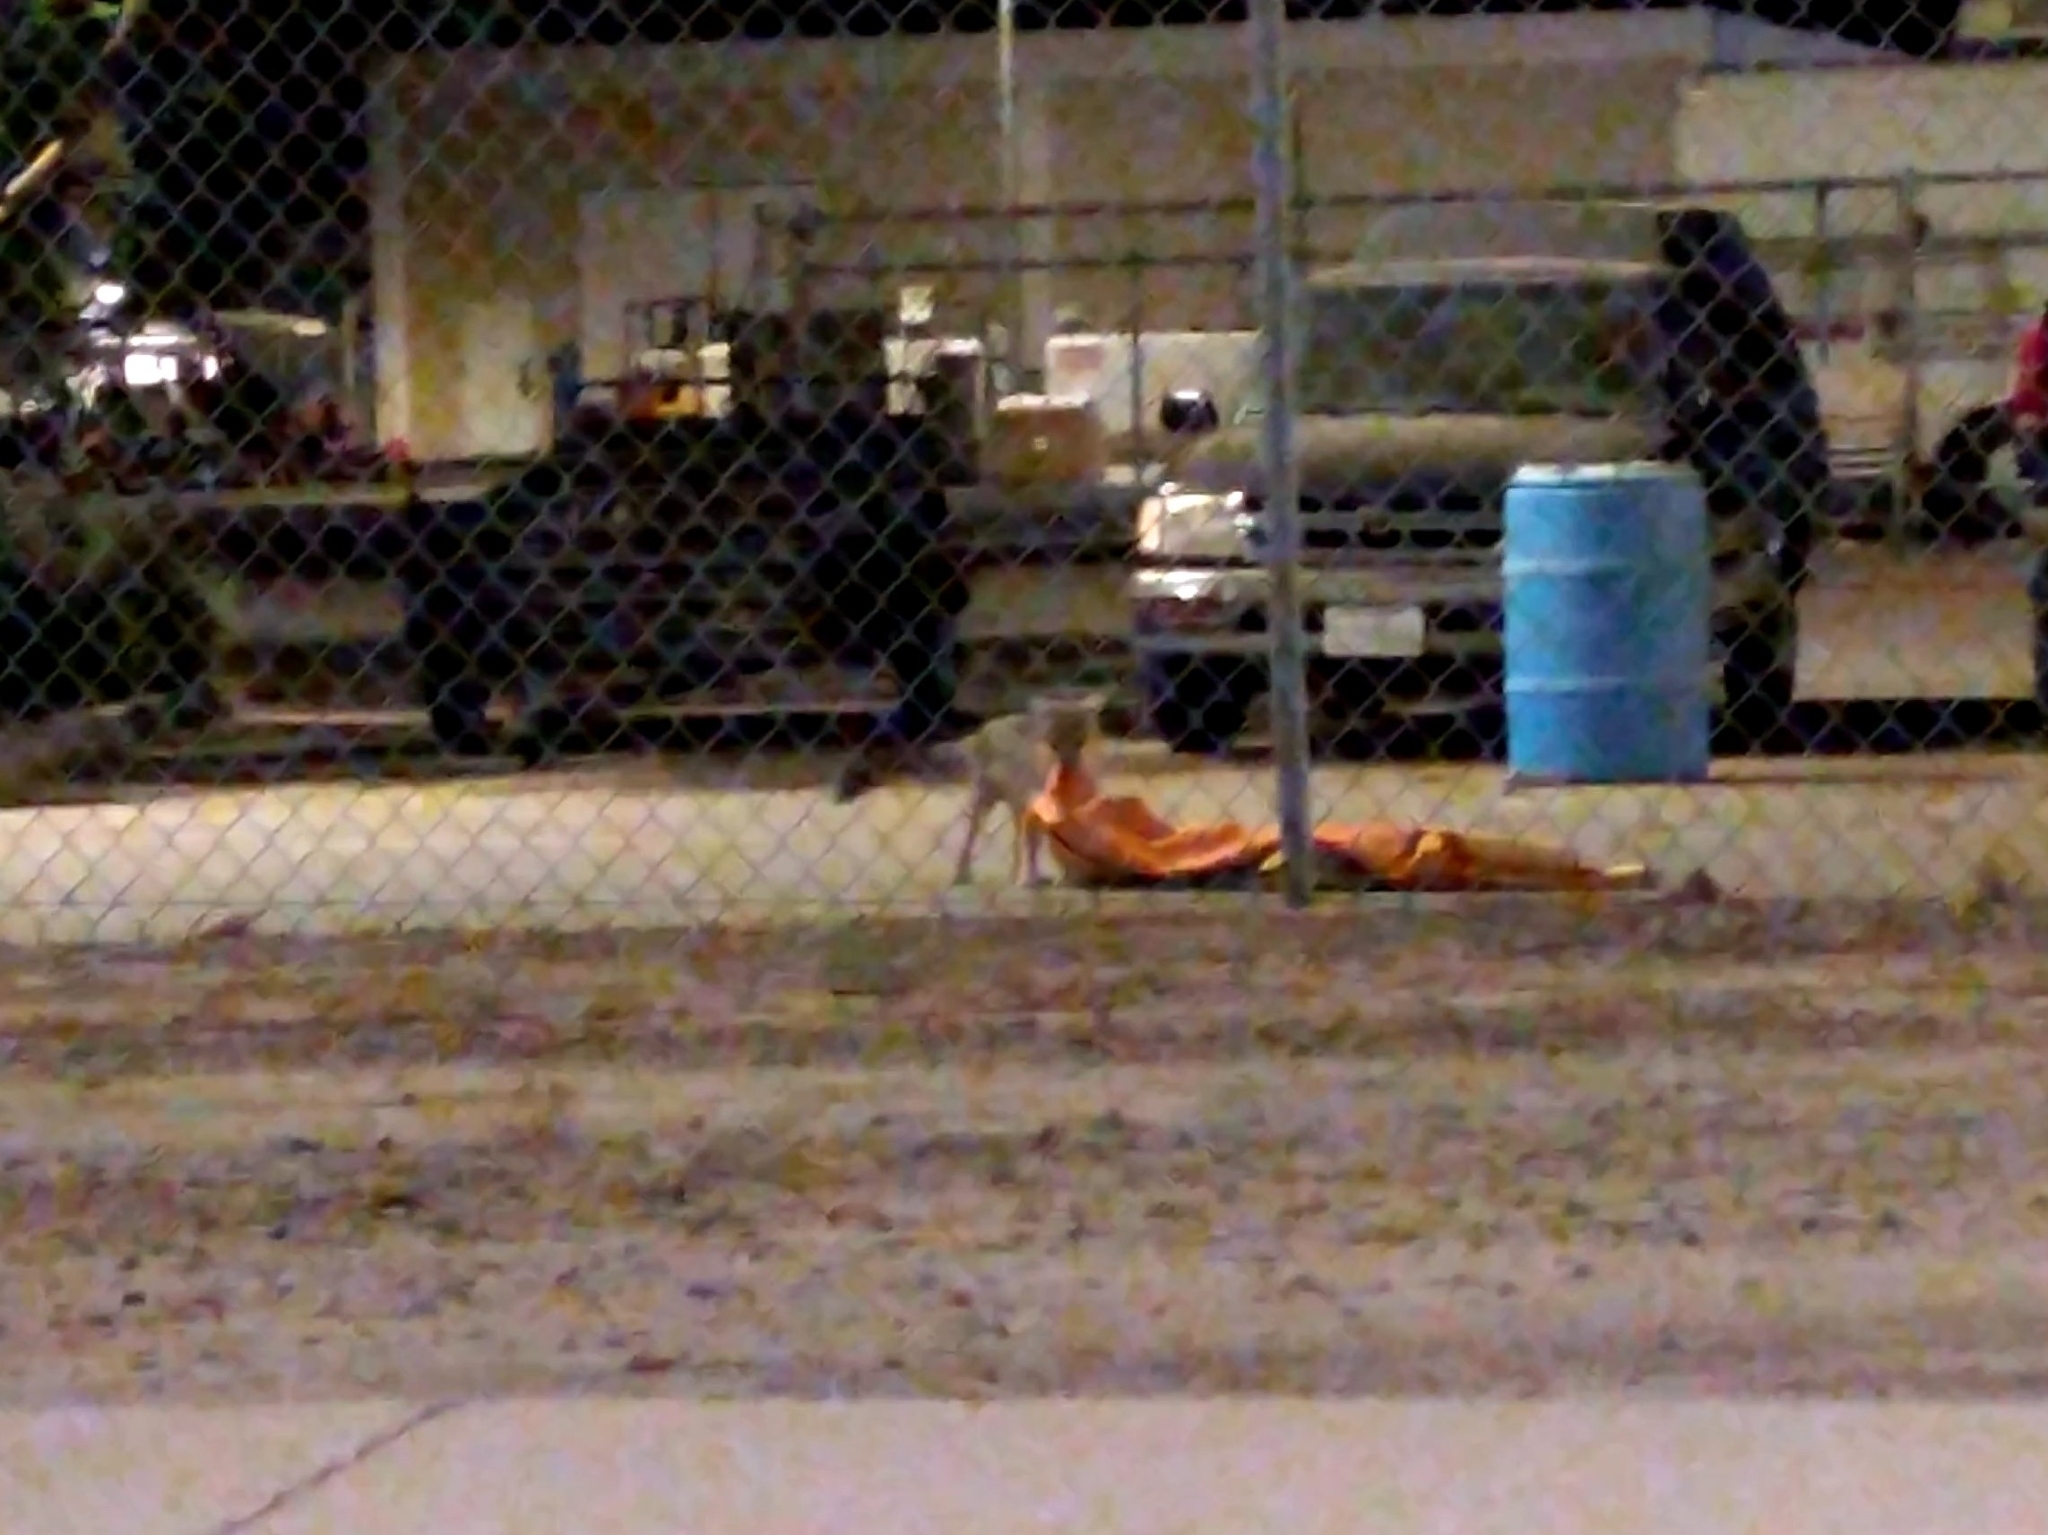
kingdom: Animalia
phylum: Chordata
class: Mammalia
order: Carnivora
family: Canidae
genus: Urocyon
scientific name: Urocyon cinereoargenteus
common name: Gray fox
